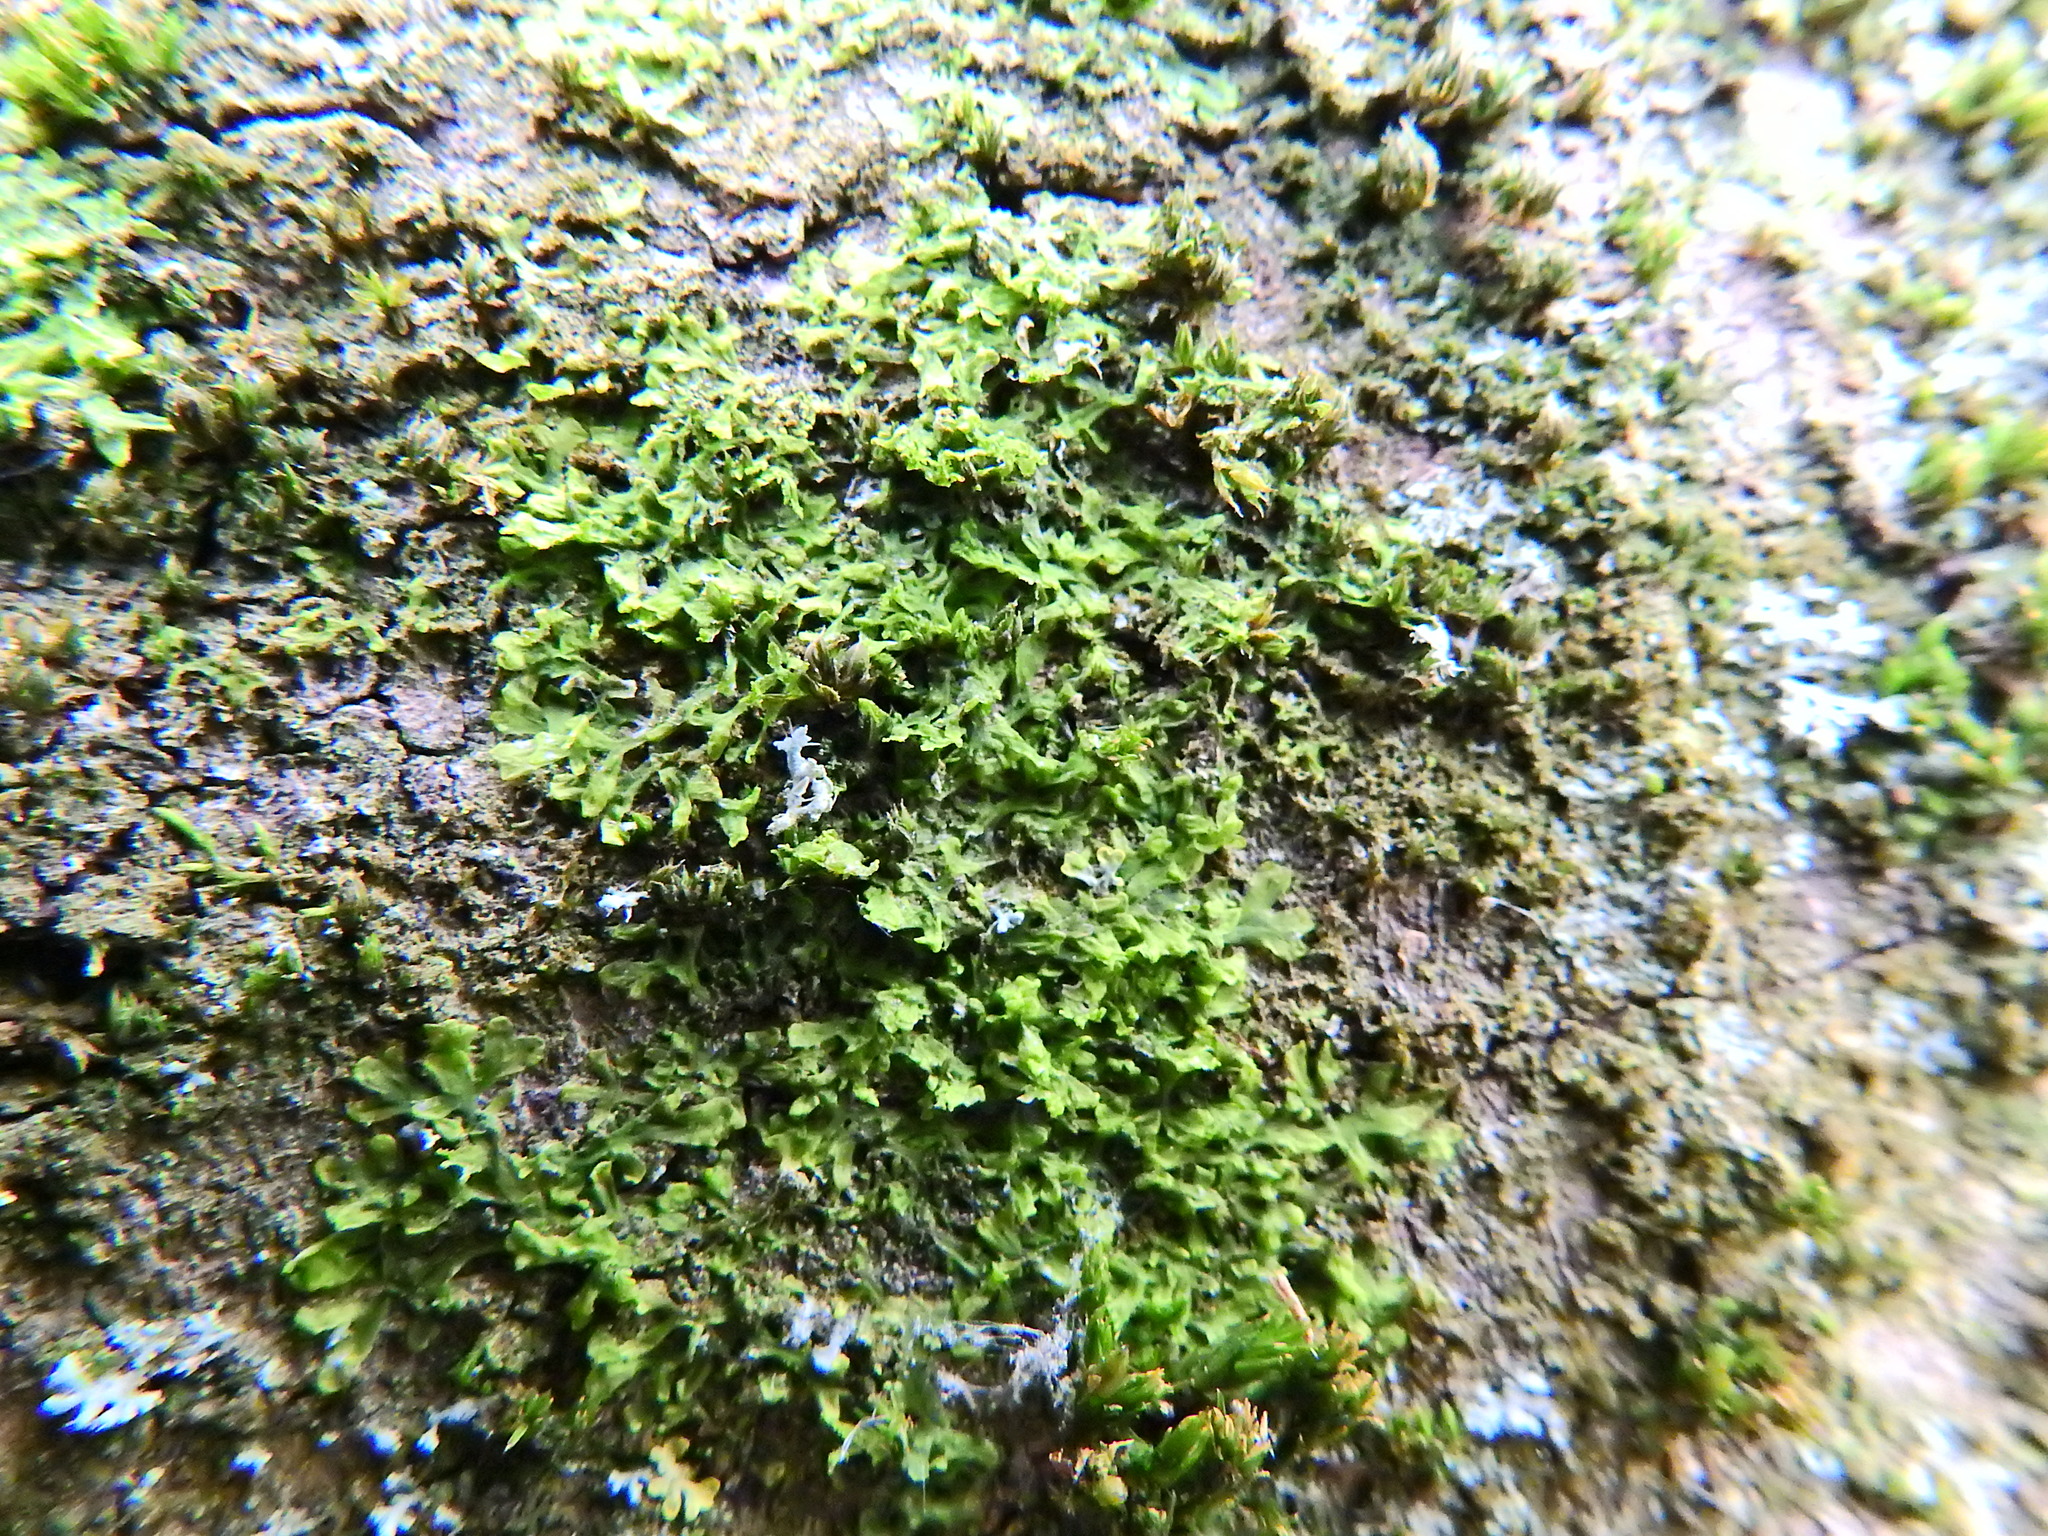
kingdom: Plantae
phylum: Marchantiophyta
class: Jungermanniopsida
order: Metzgeriales
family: Metzgeriaceae
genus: Metzgeria
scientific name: Metzgeria violacea
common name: Blueish veilwort
